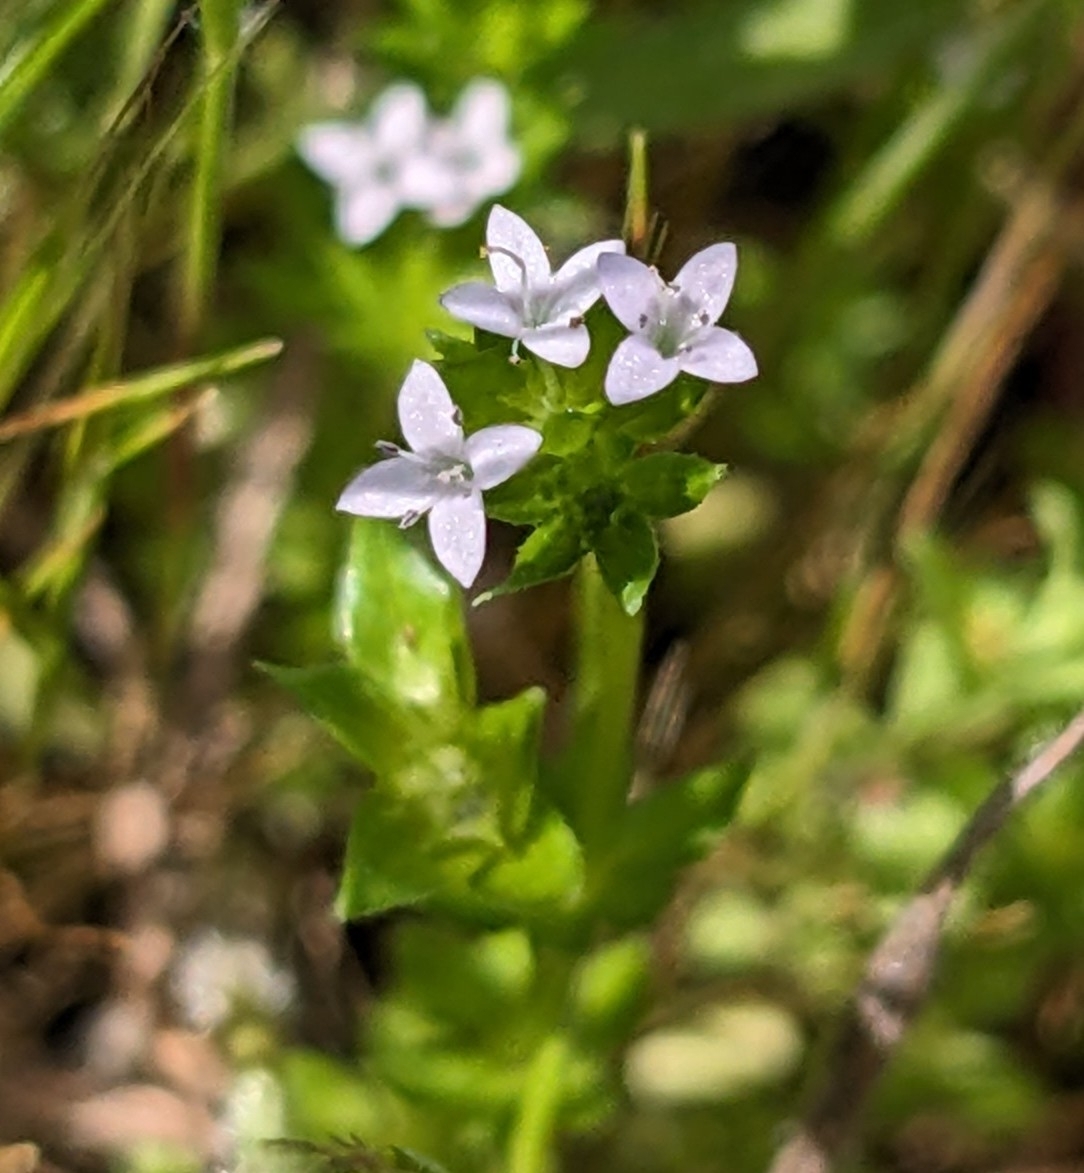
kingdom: Plantae
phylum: Tracheophyta
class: Magnoliopsida
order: Gentianales
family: Rubiaceae
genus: Sherardia
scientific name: Sherardia arvensis
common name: Field madder
